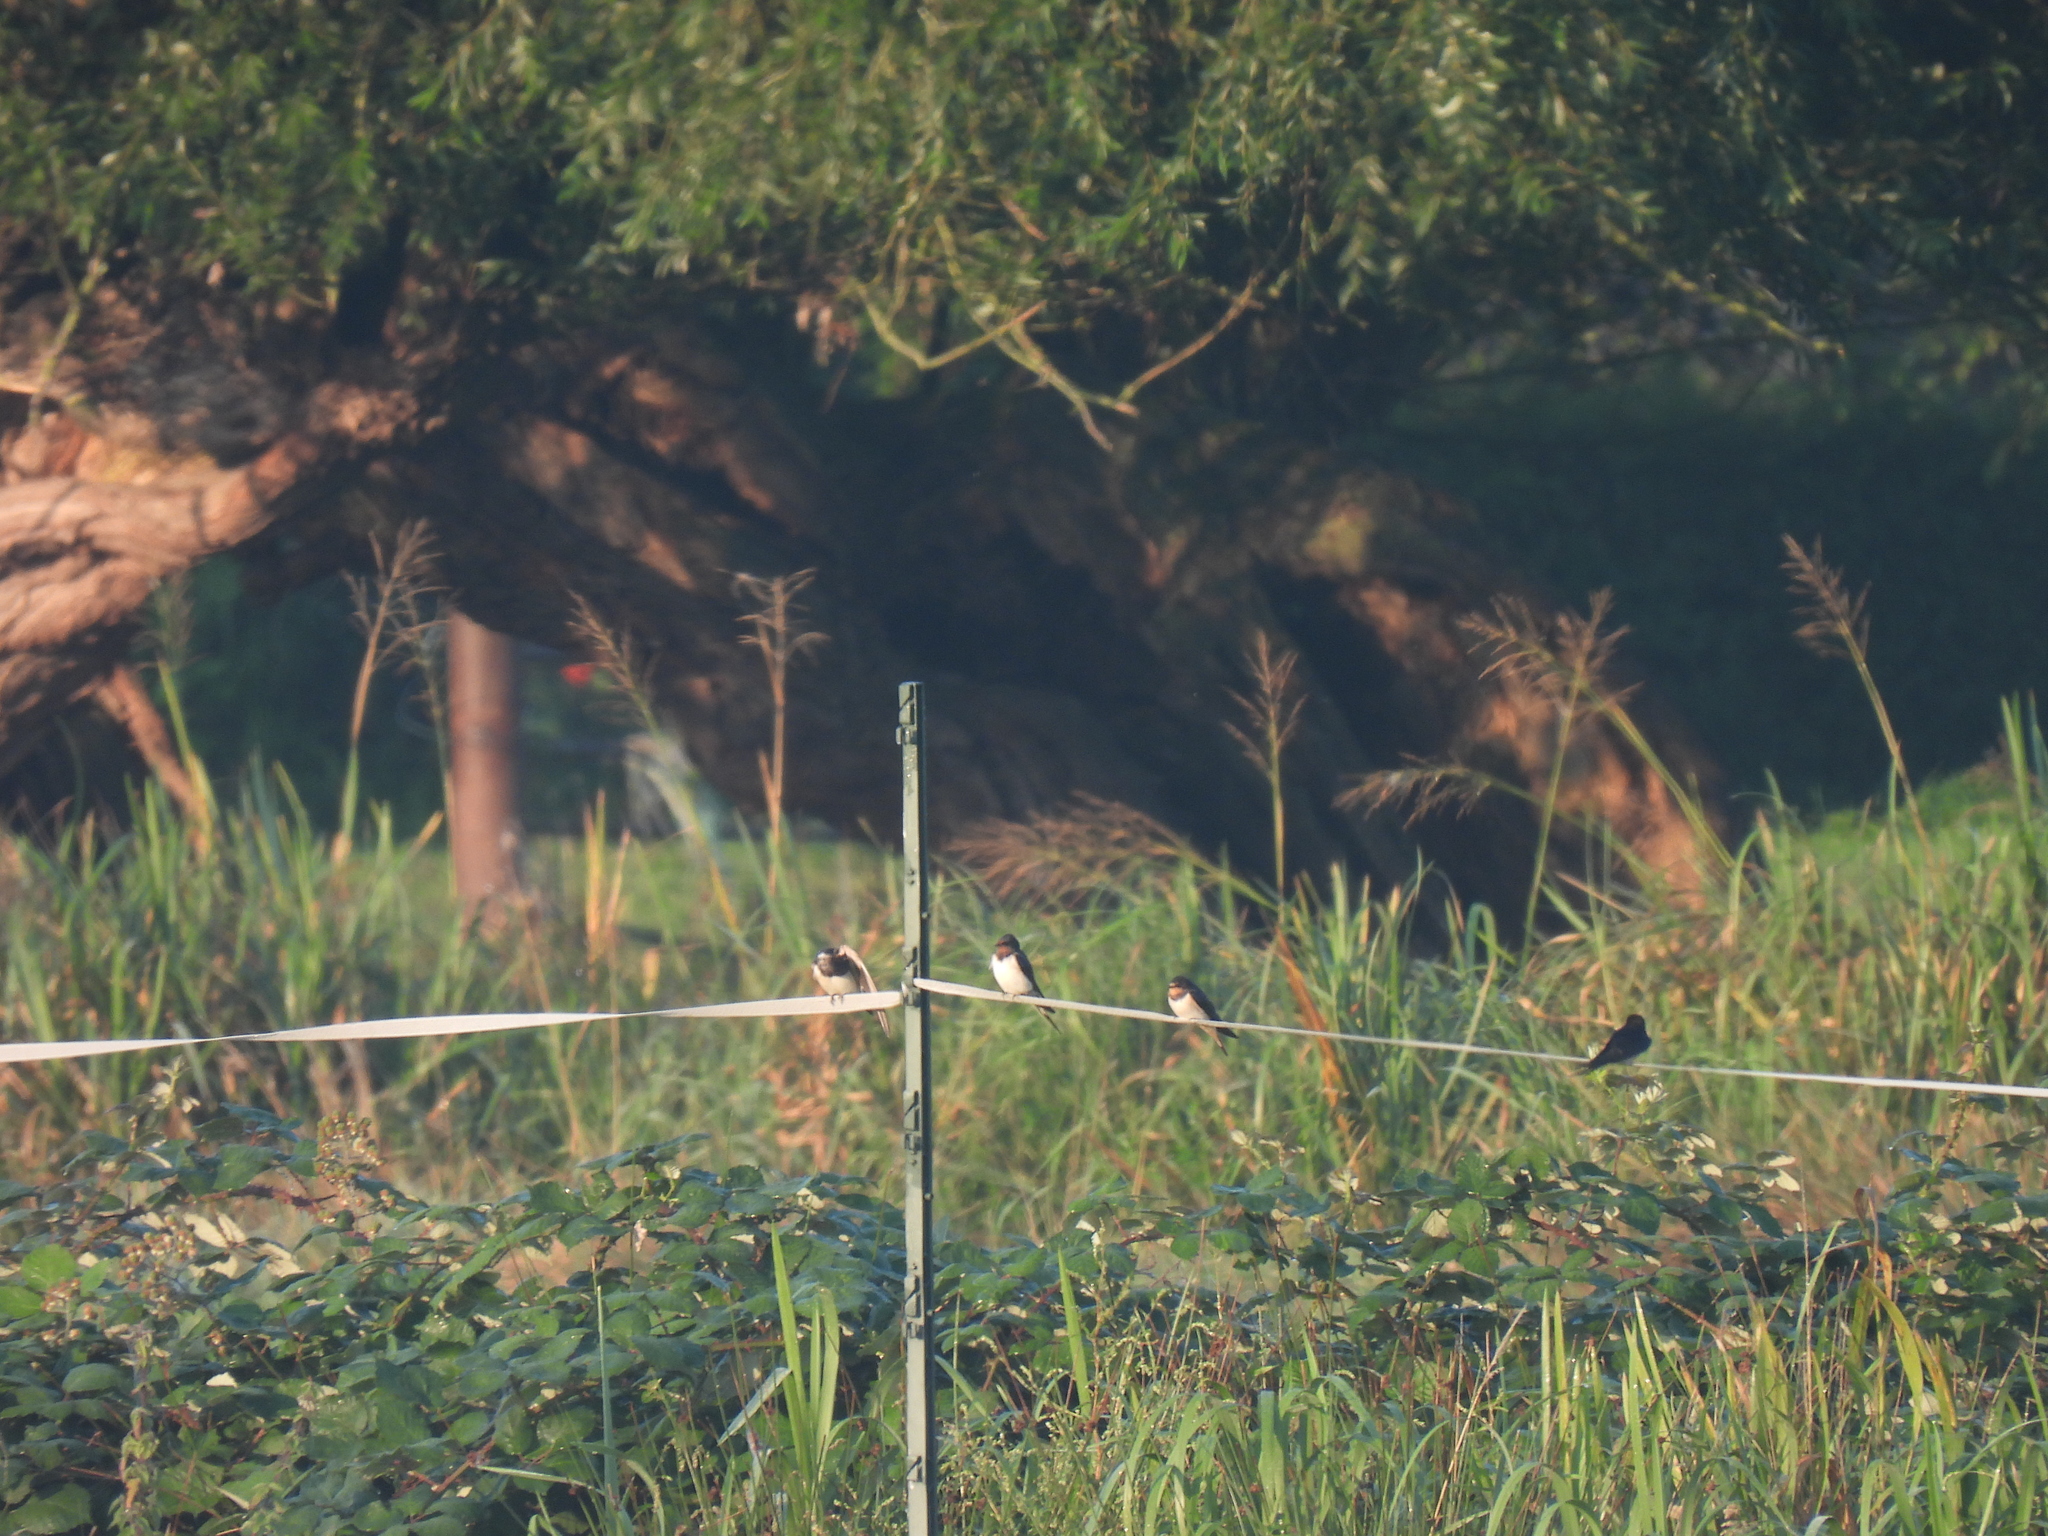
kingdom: Animalia
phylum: Chordata
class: Aves
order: Passeriformes
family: Hirundinidae
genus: Hirundo
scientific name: Hirundo rustica
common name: Barn swallow
